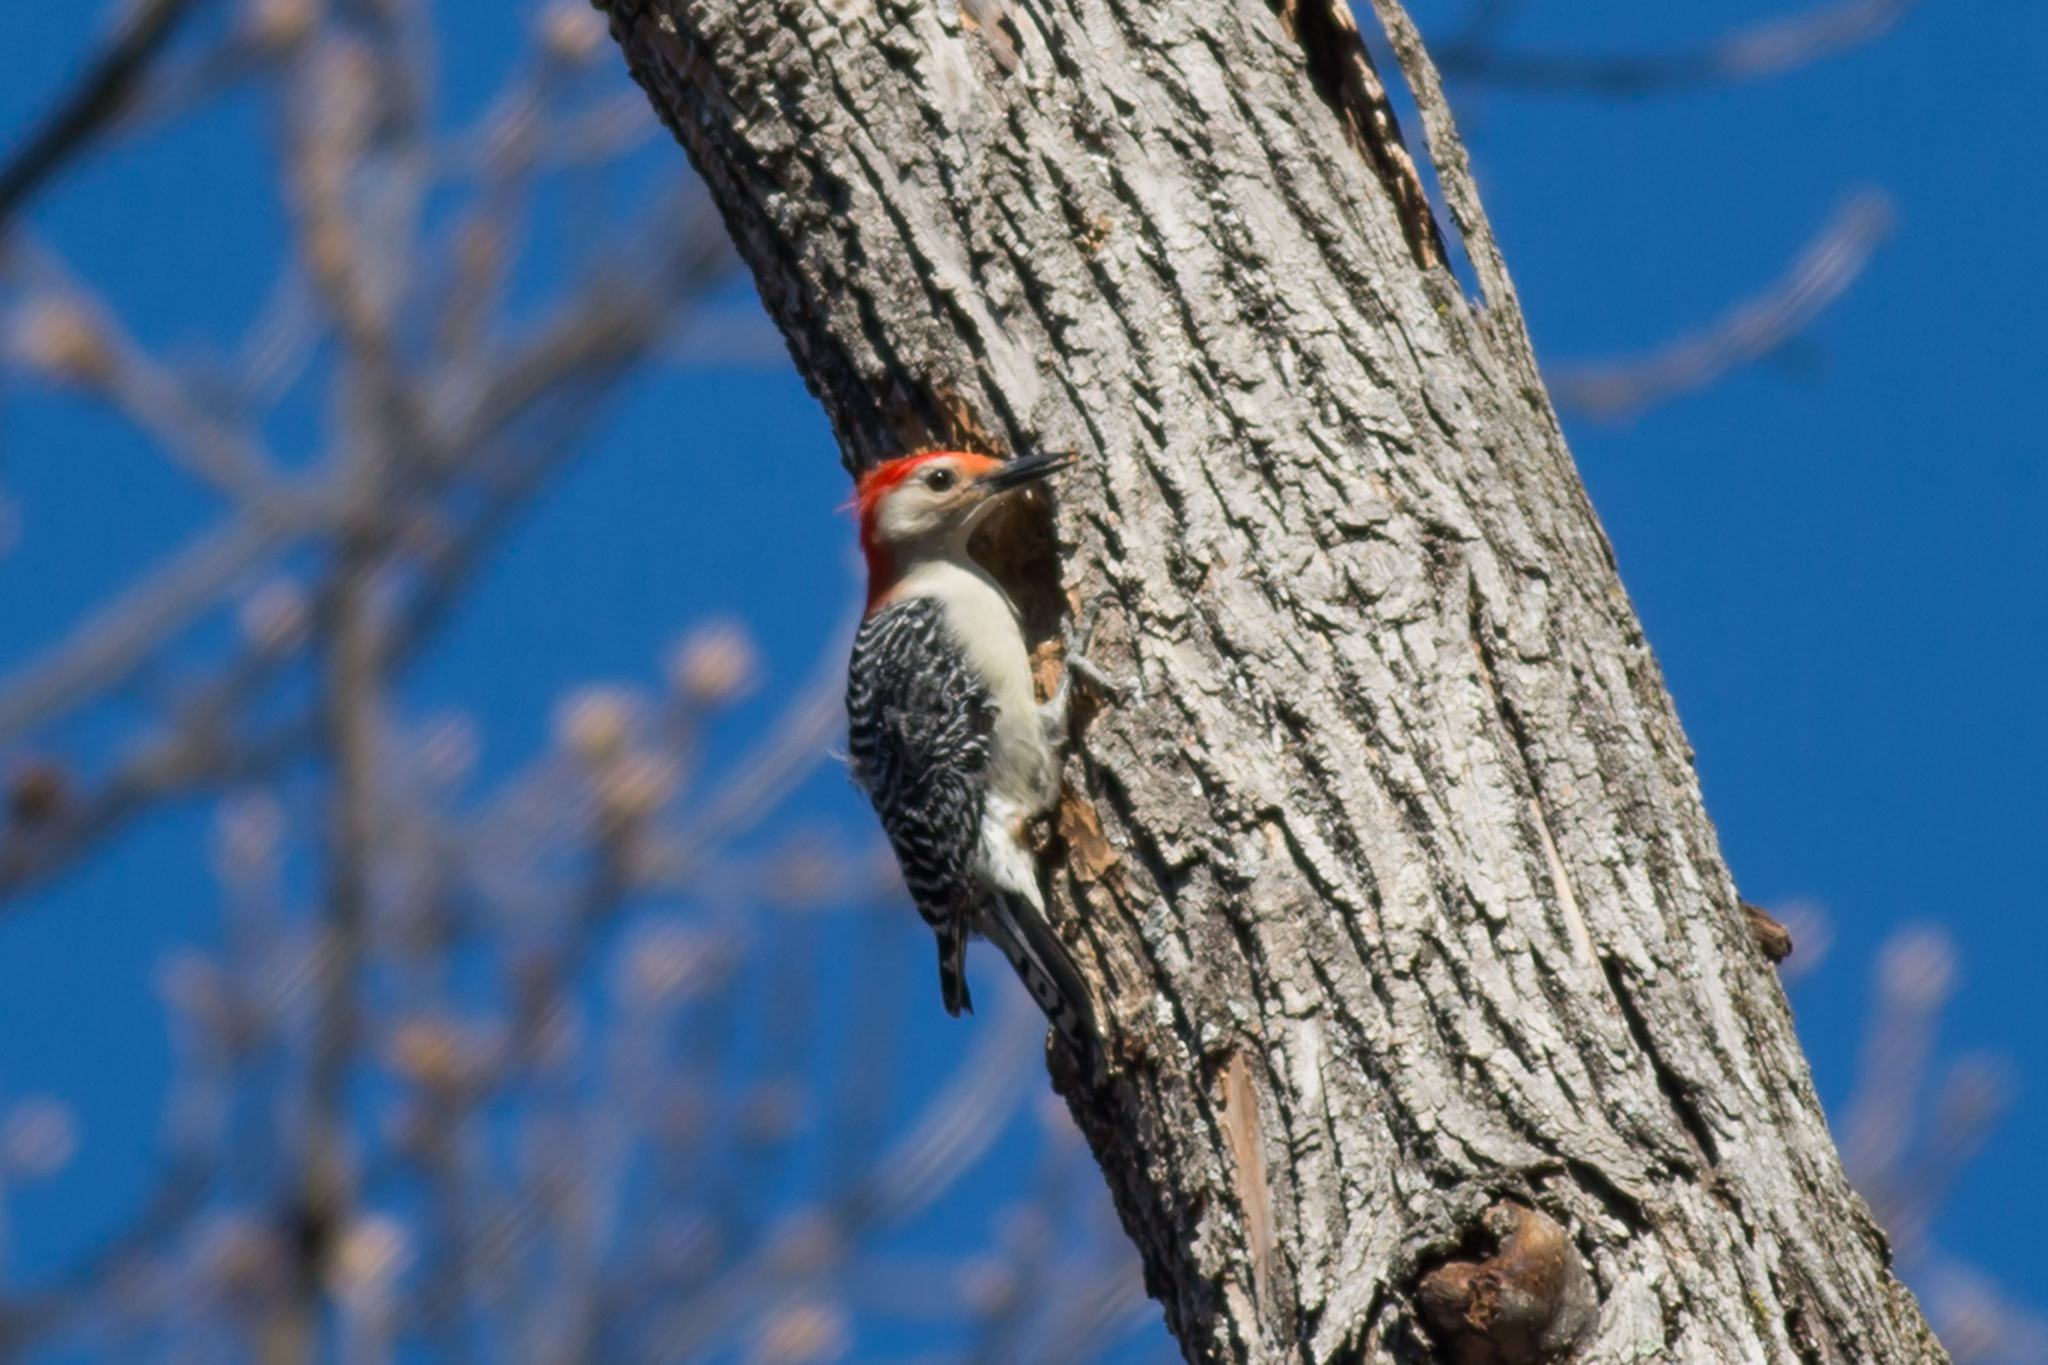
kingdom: Animalia
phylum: Chordata
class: Aves
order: Piciformes
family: Picidae
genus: Melanerpes
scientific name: Melanerpes carolinus
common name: Red-bellied woodpecker
